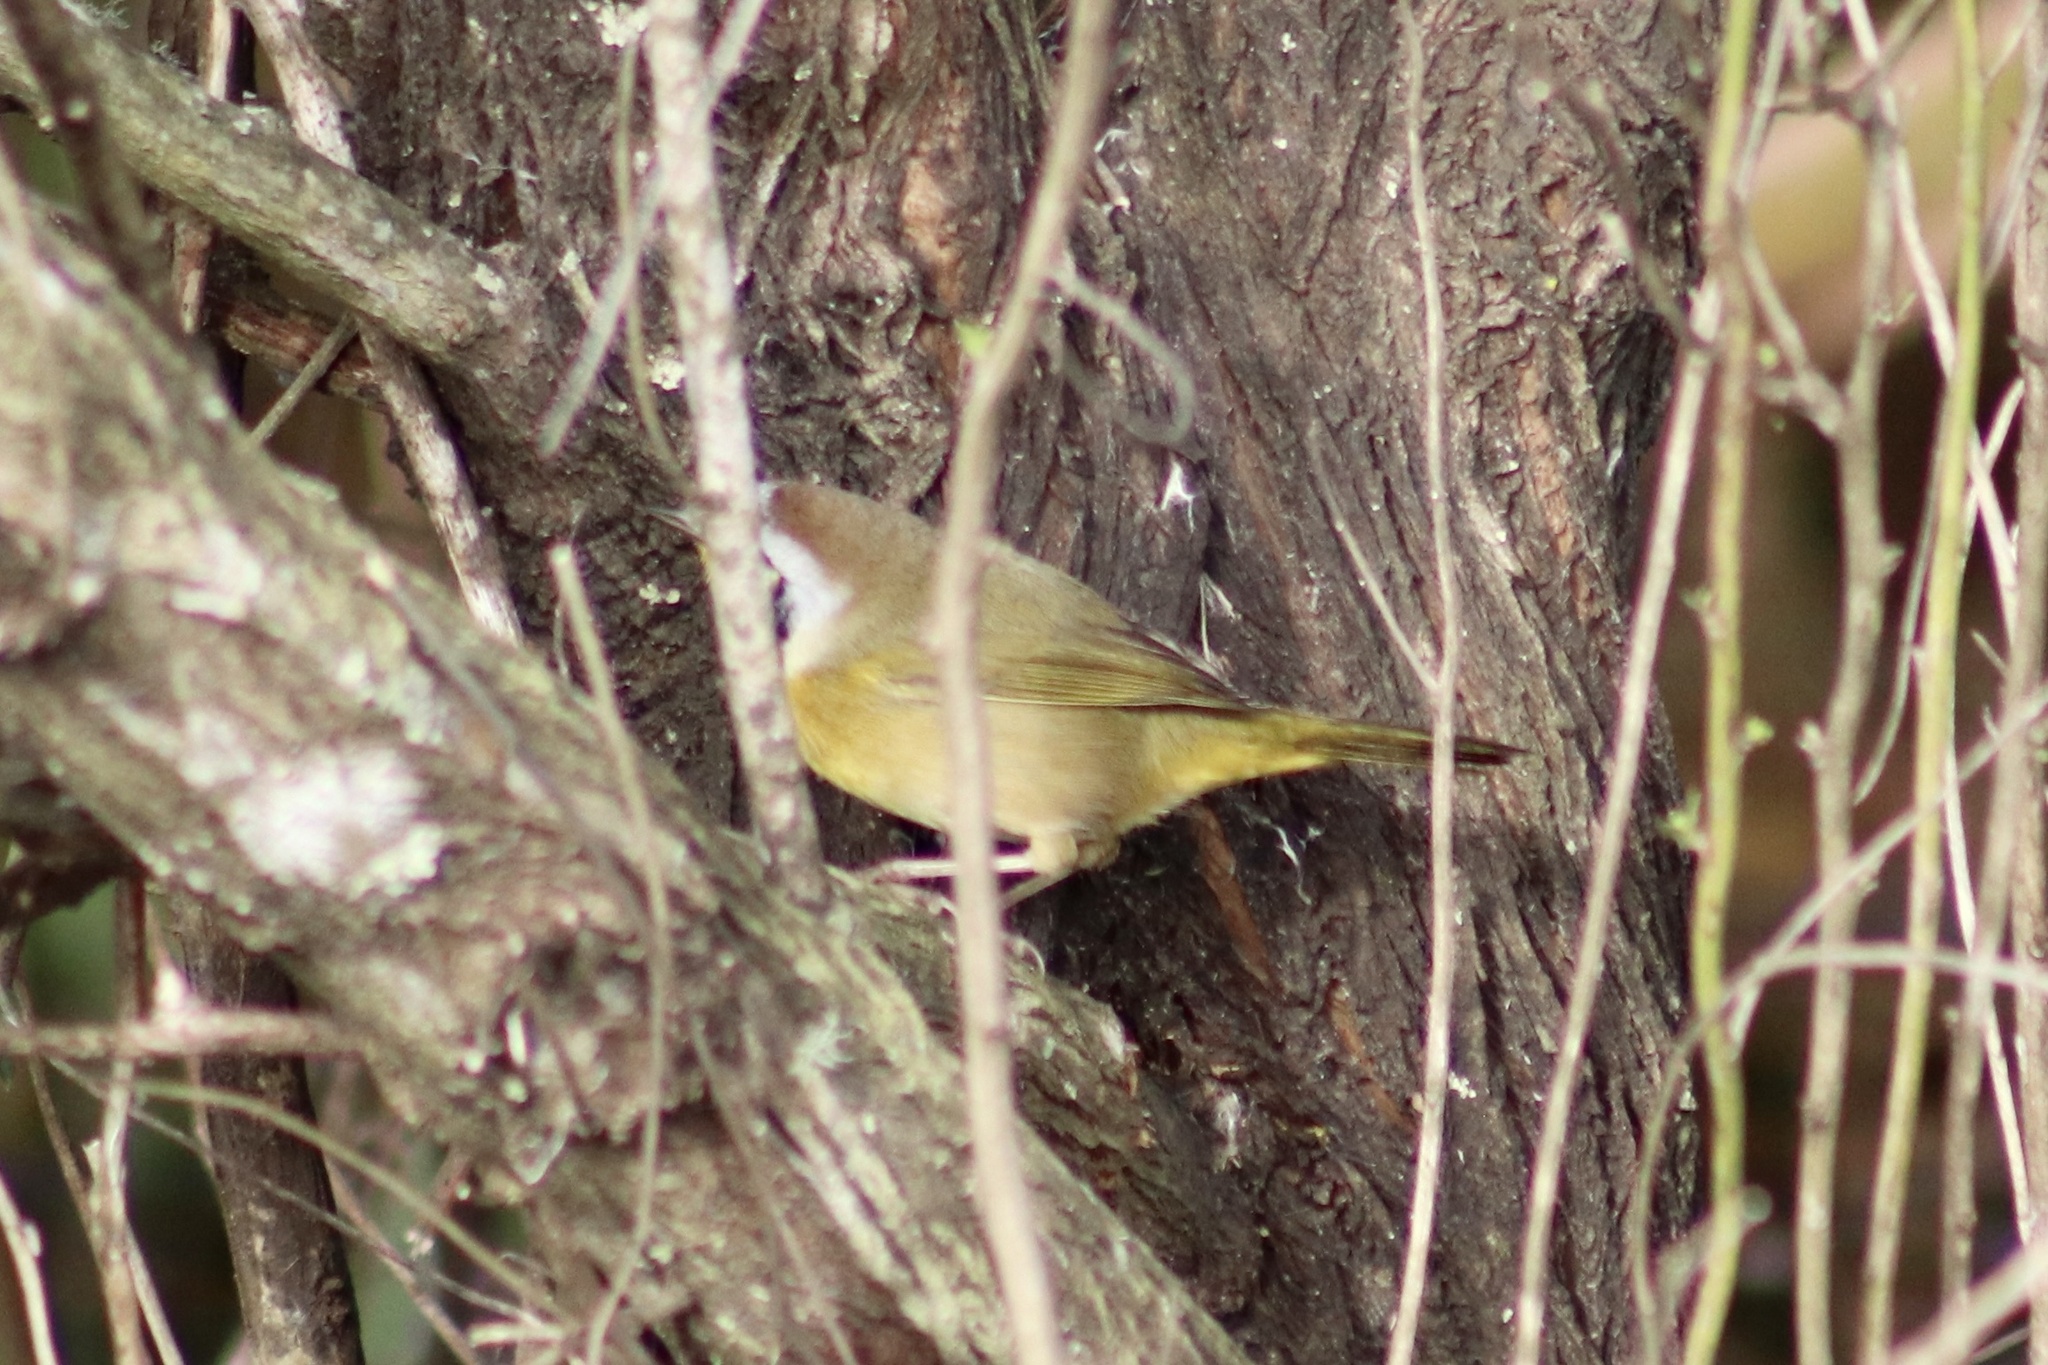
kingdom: Animalia
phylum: Chordata
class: Aves
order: Passeriformes
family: Parulidae
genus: Geothlypis
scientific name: Geothlypis trichas
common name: Common yellowthroat
